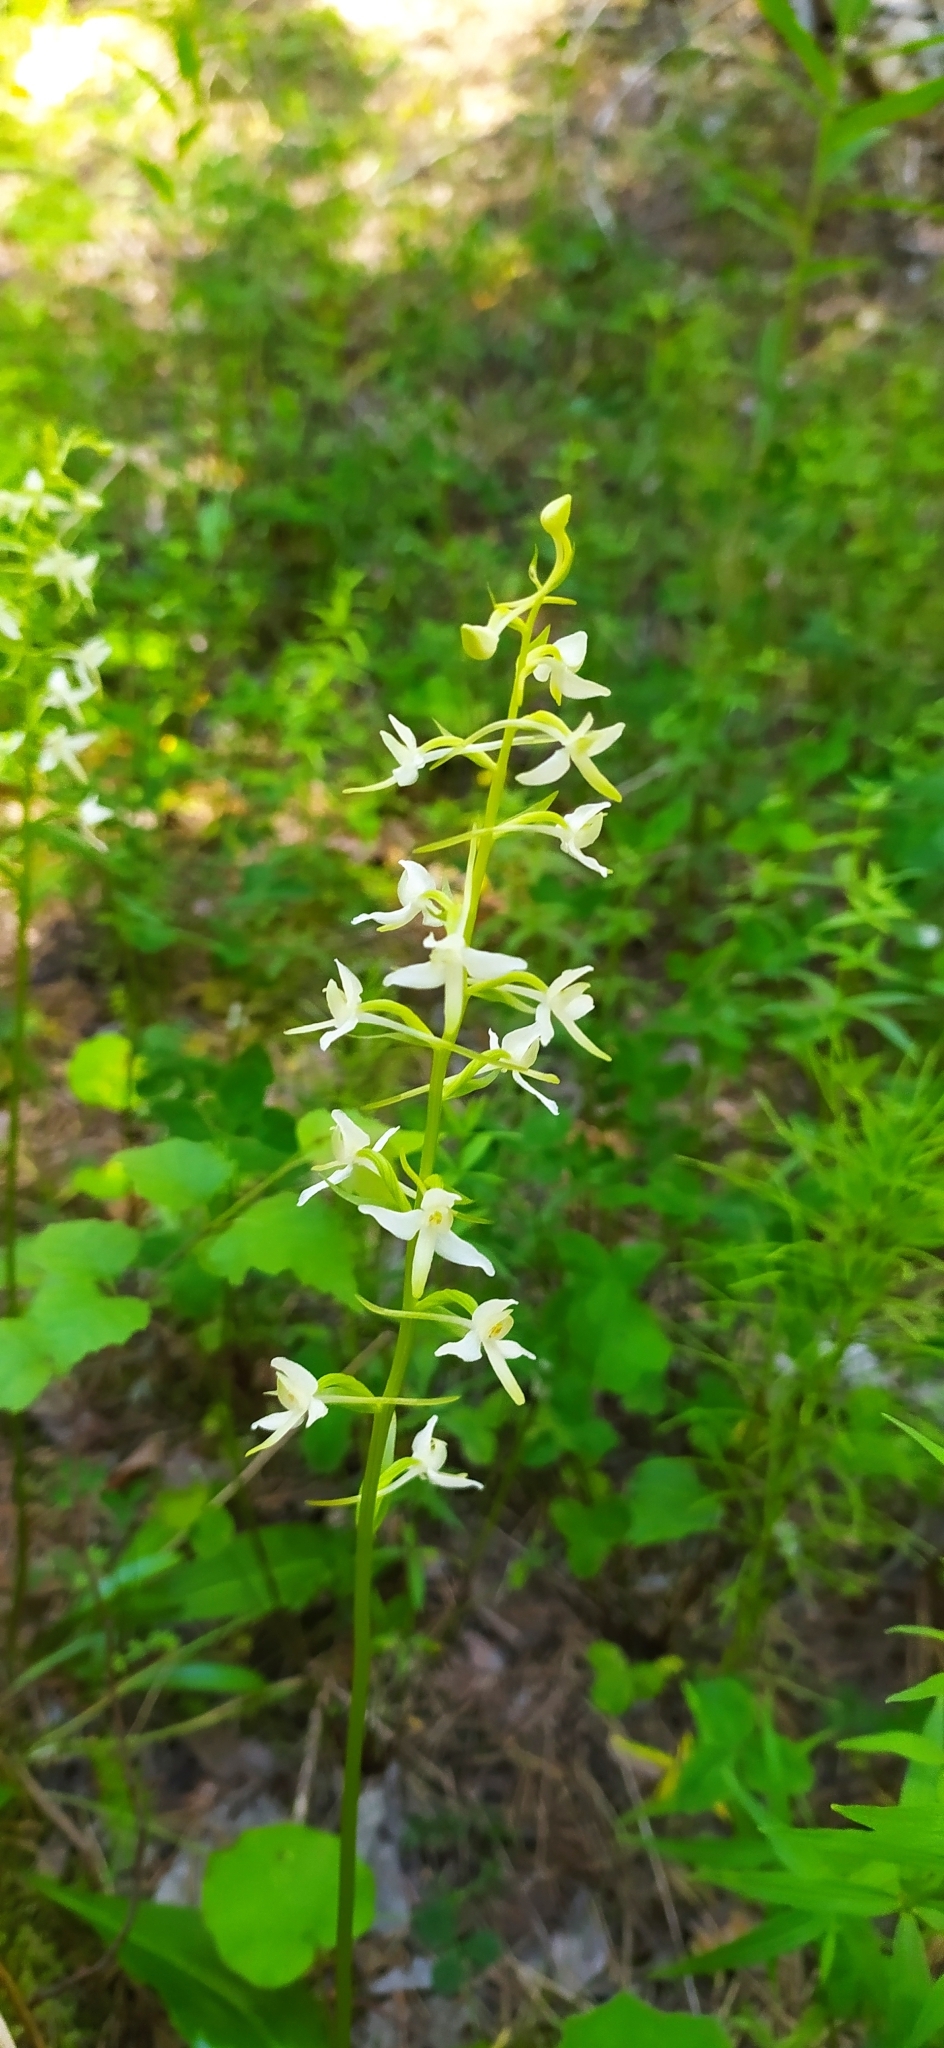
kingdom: Plantae
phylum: Tracheophyta
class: Liliopsida
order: Asparagales
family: Orchidaceae
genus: Platanthera
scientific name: Platanthera bifolia
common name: Lesser butterfly-orchid
